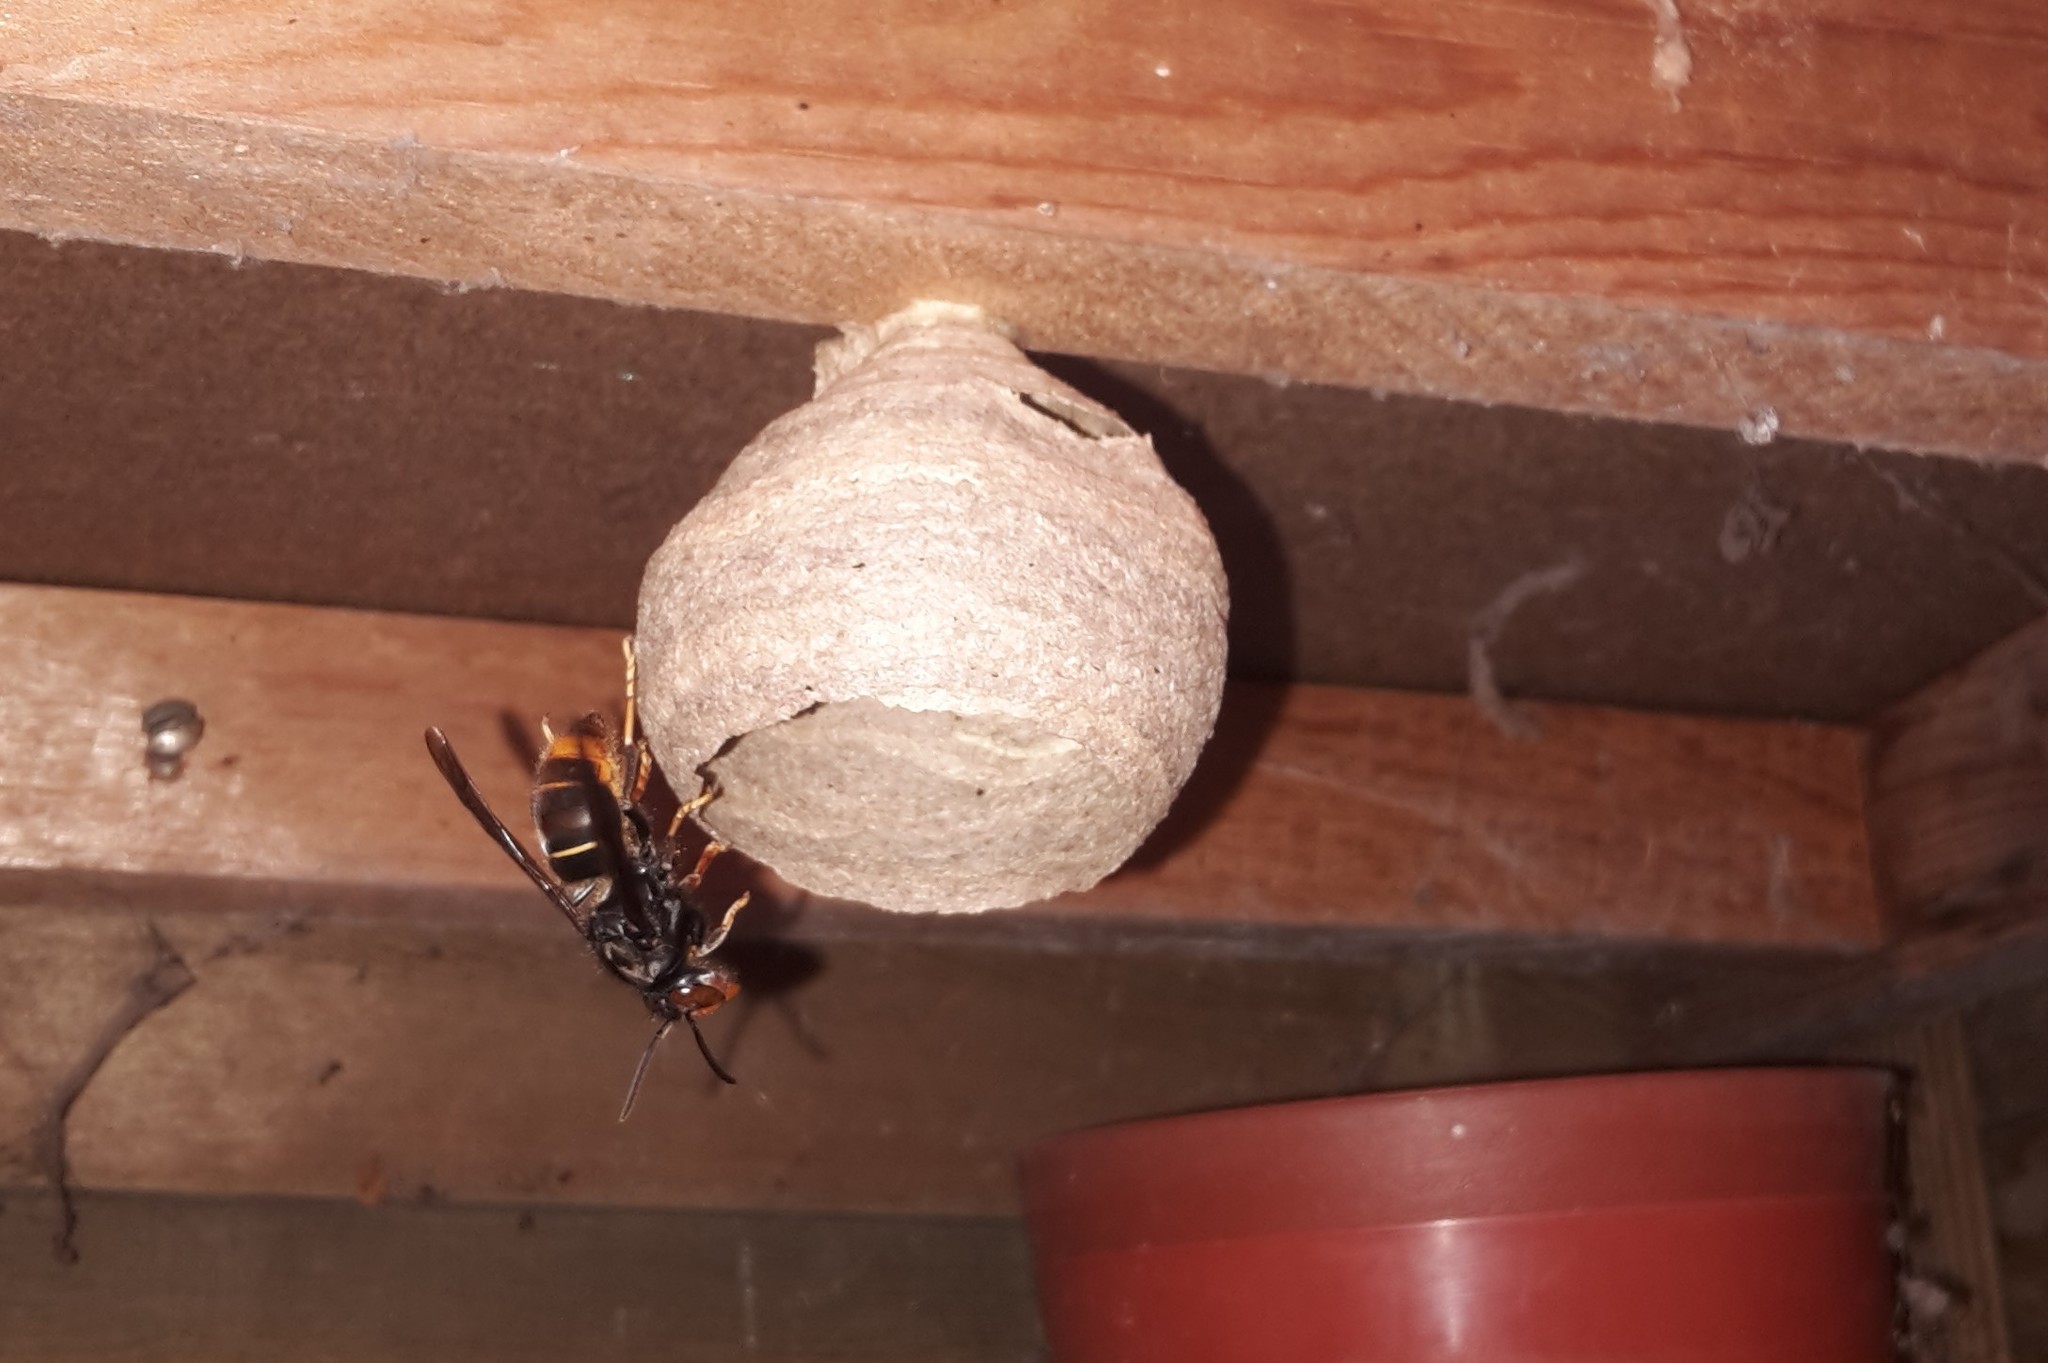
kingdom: Animalia
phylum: Arthropoda
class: Insecta
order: Hymenoptera
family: Vespidae
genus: Vespa
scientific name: Vespa velutina
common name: Asian hornet
